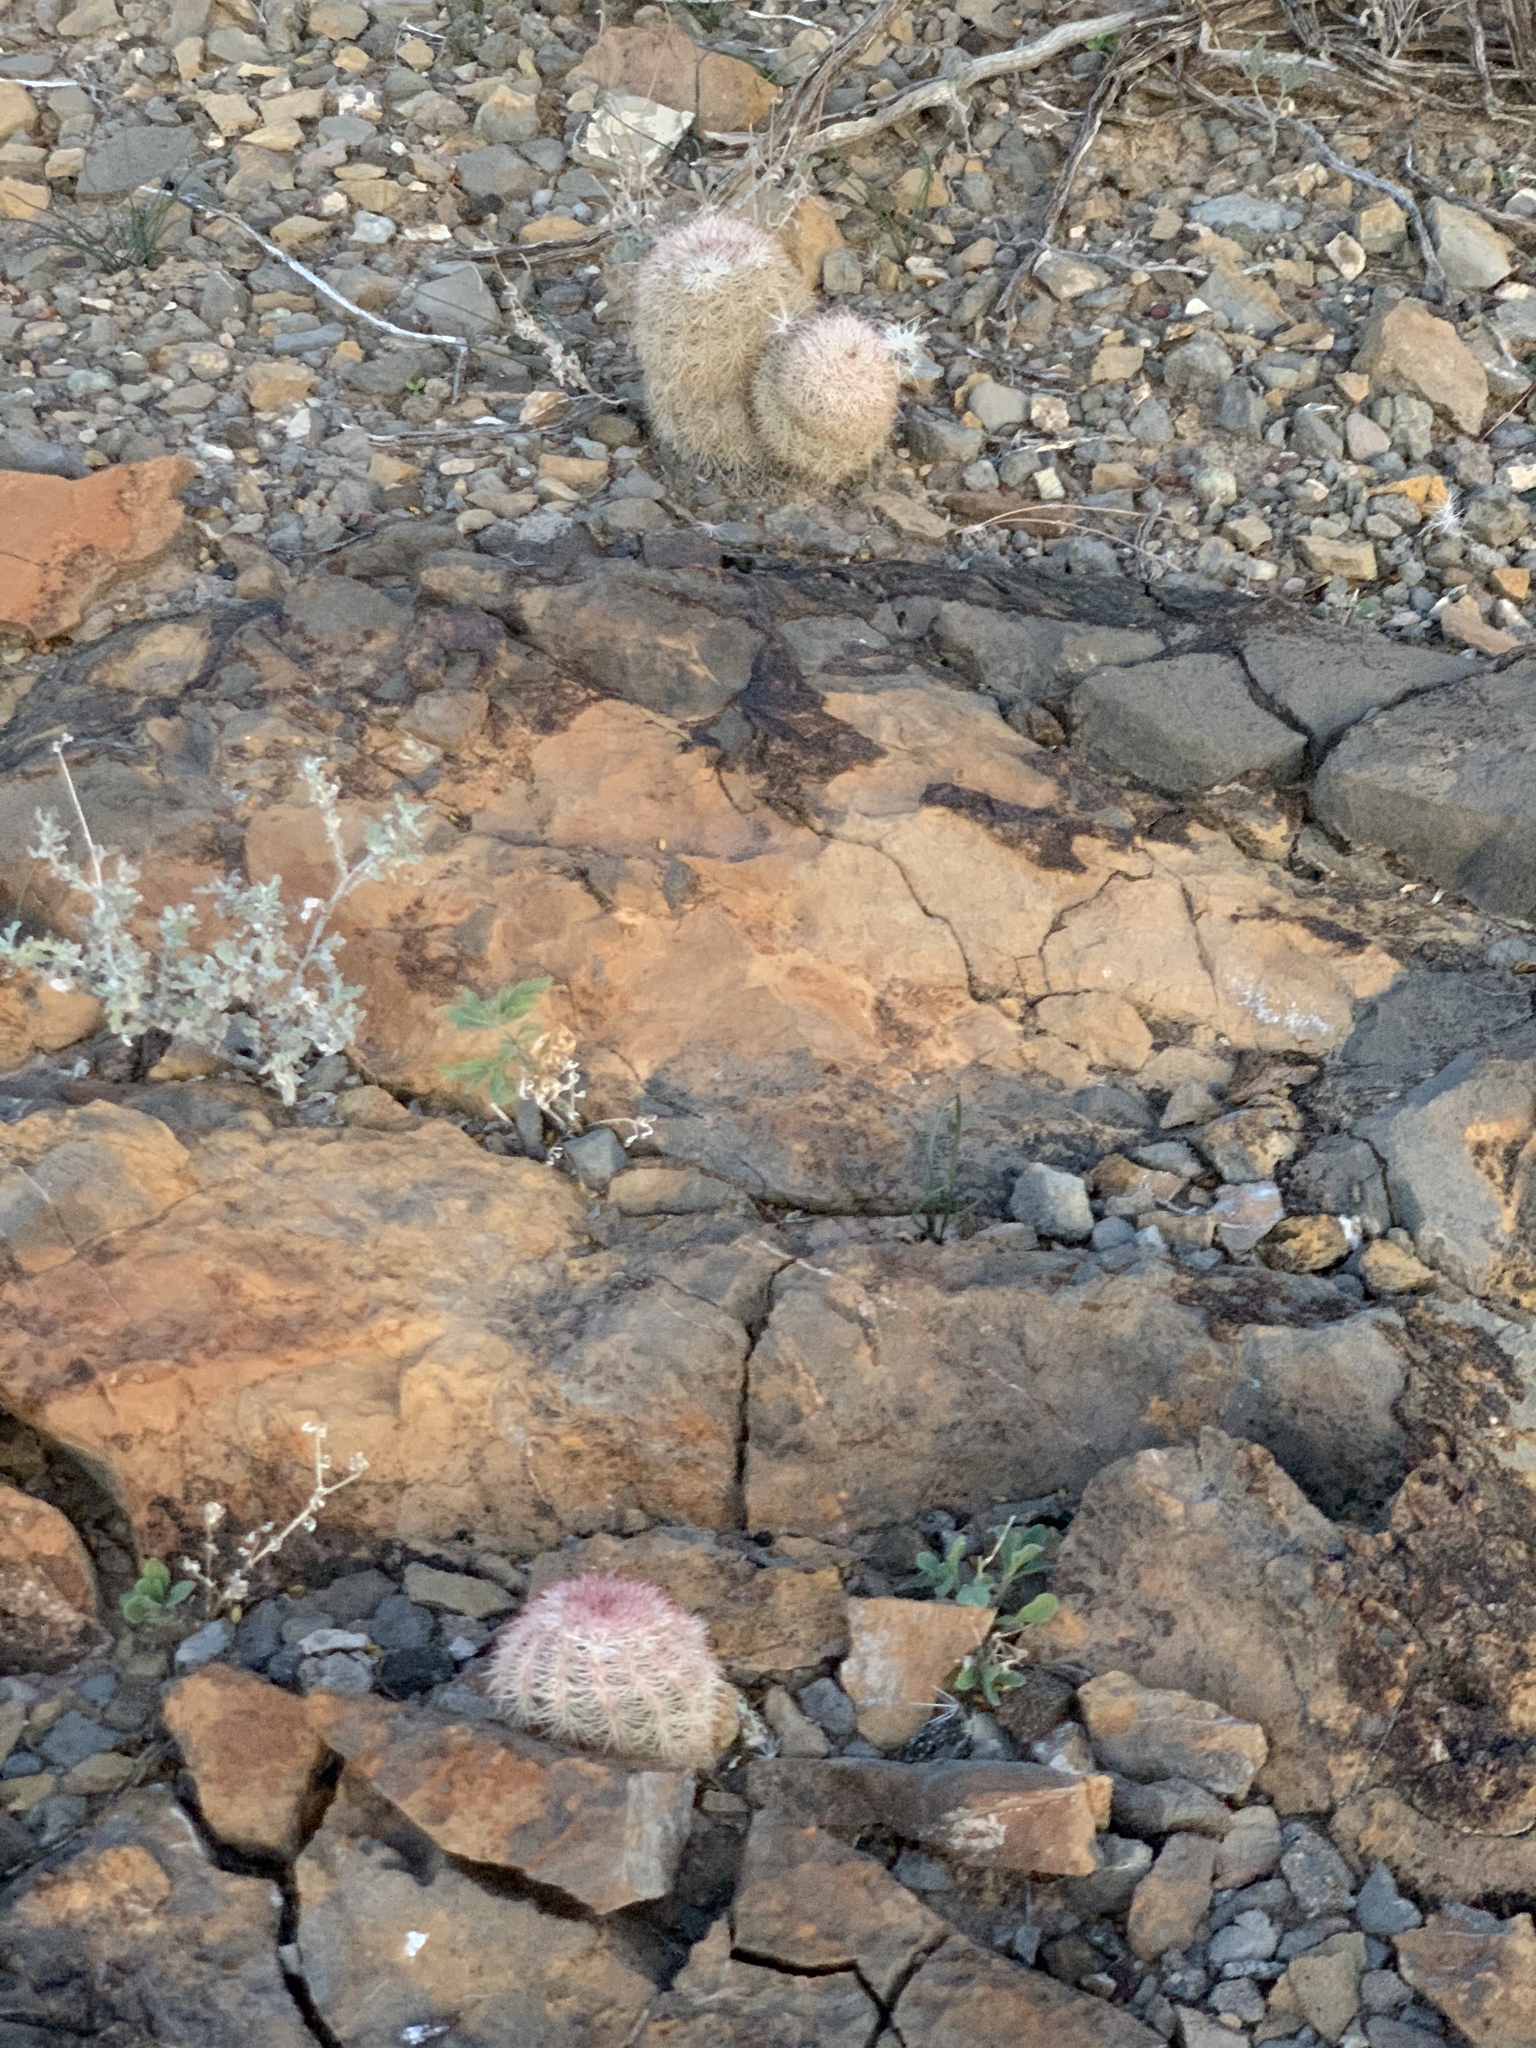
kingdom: Plantae
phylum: Tracheophyta
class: Magnoliopsida
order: Caryophyllales
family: Cactaceae
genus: Echinocereus
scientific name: Echinocereus dasyacanthus
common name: Spiny hedgehog cactus
